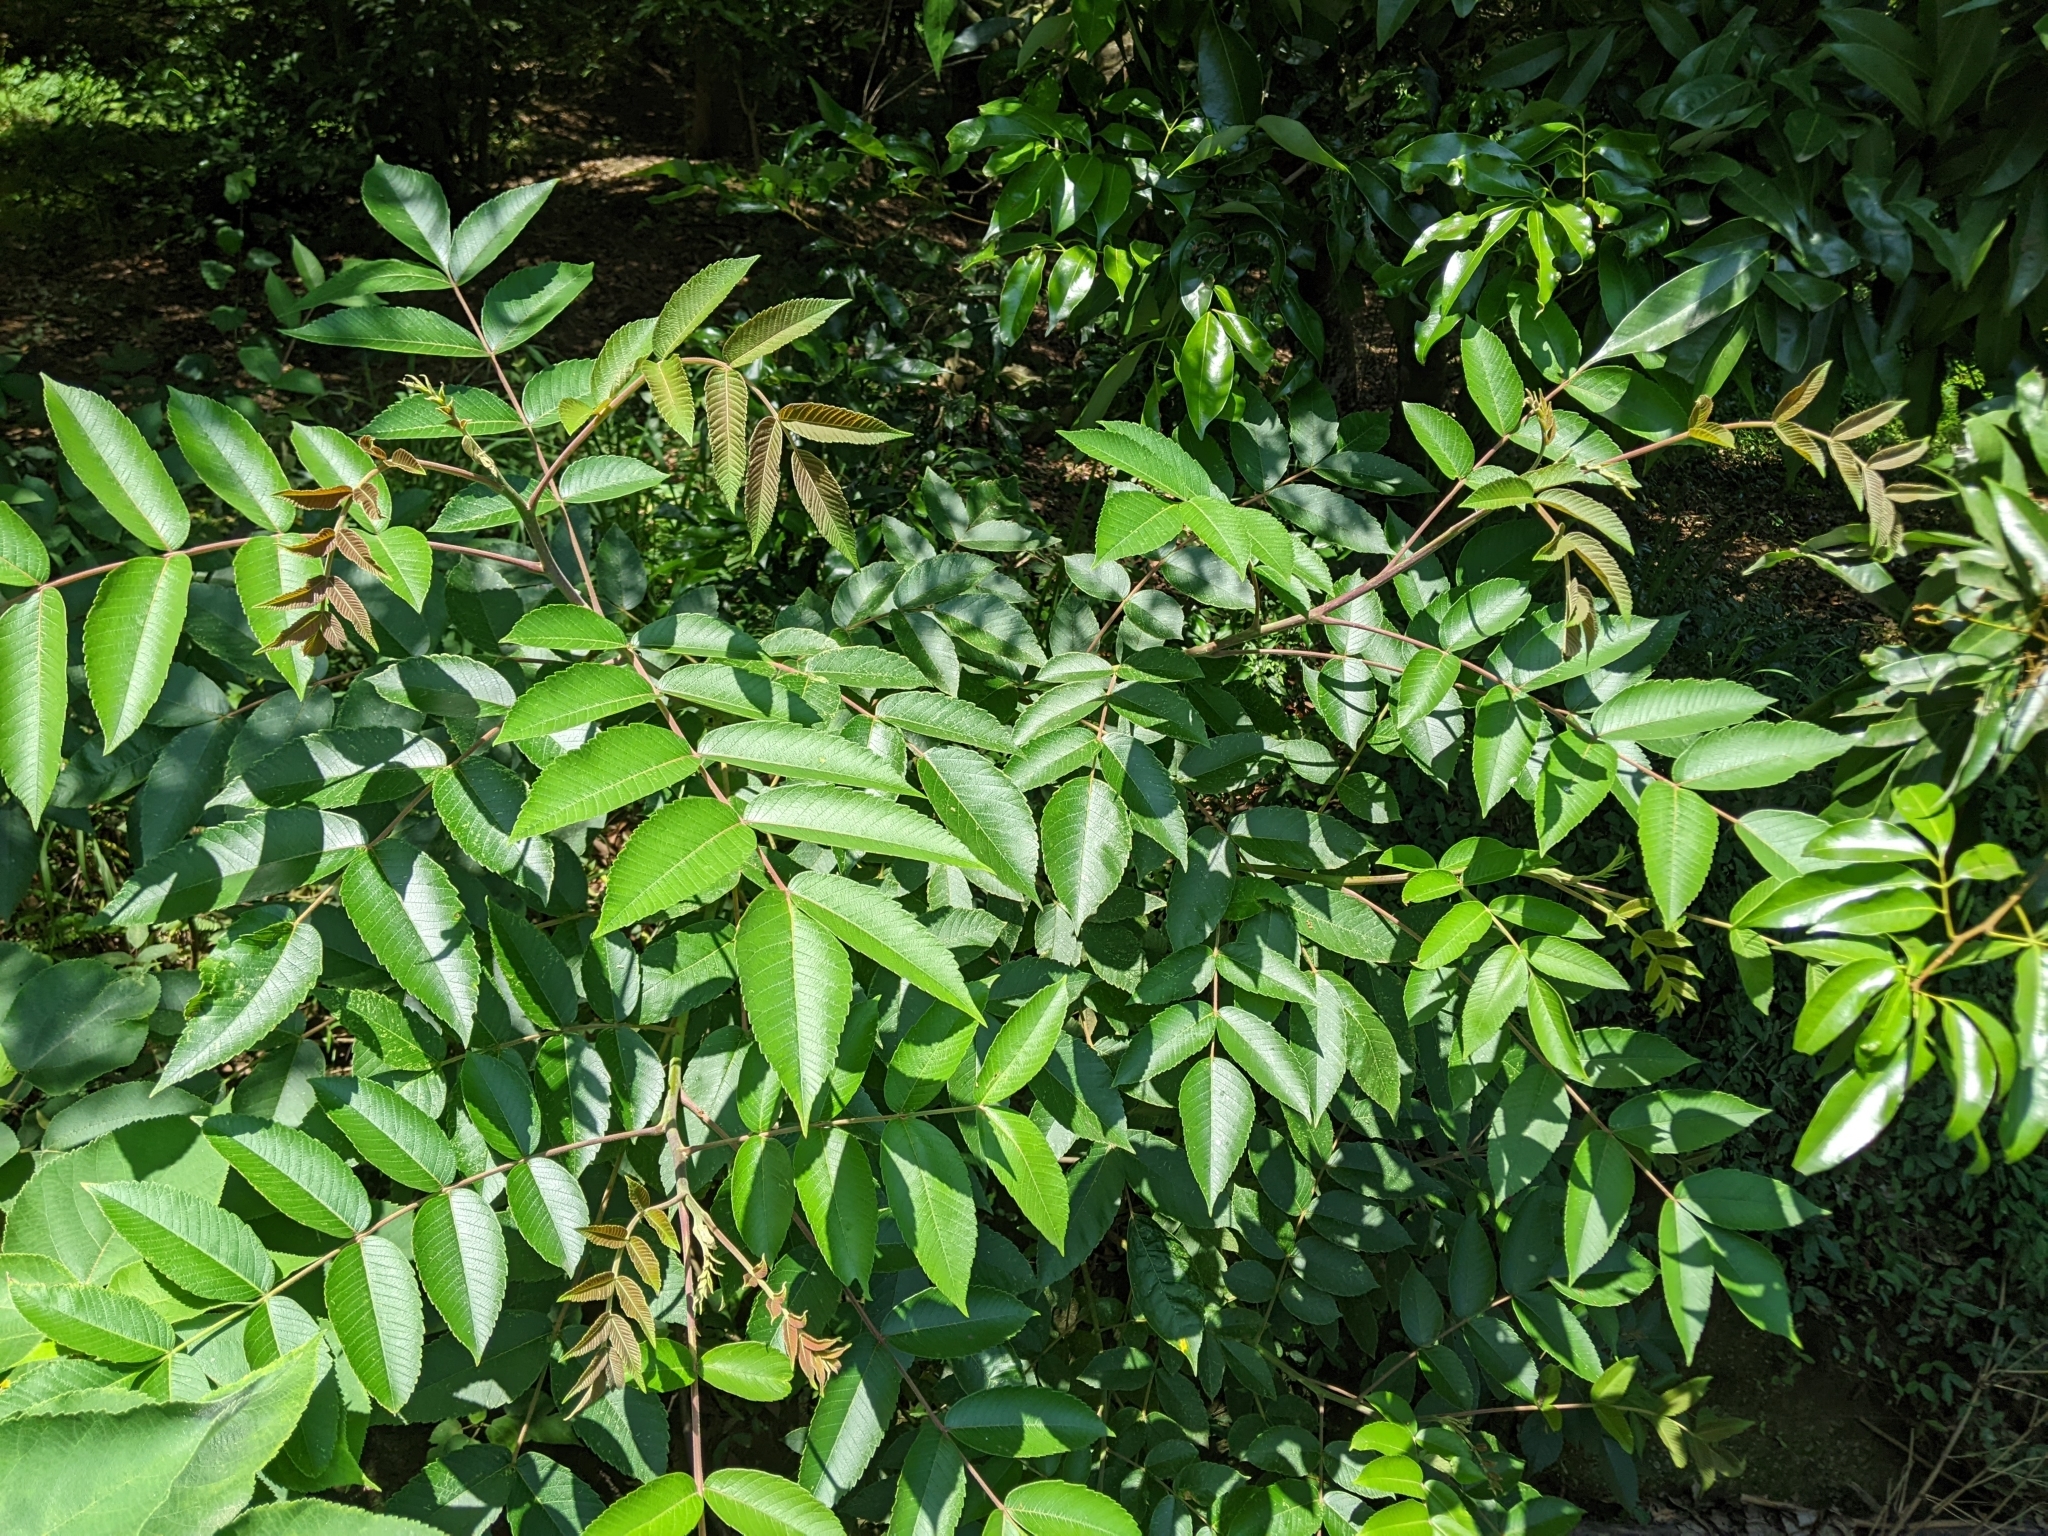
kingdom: Plantae
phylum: Tracheophyta
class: Magnoliopsida
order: Sapindales
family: Anacardiaceae
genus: Rhus
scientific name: Rhus chinensis
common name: Chinese gall
